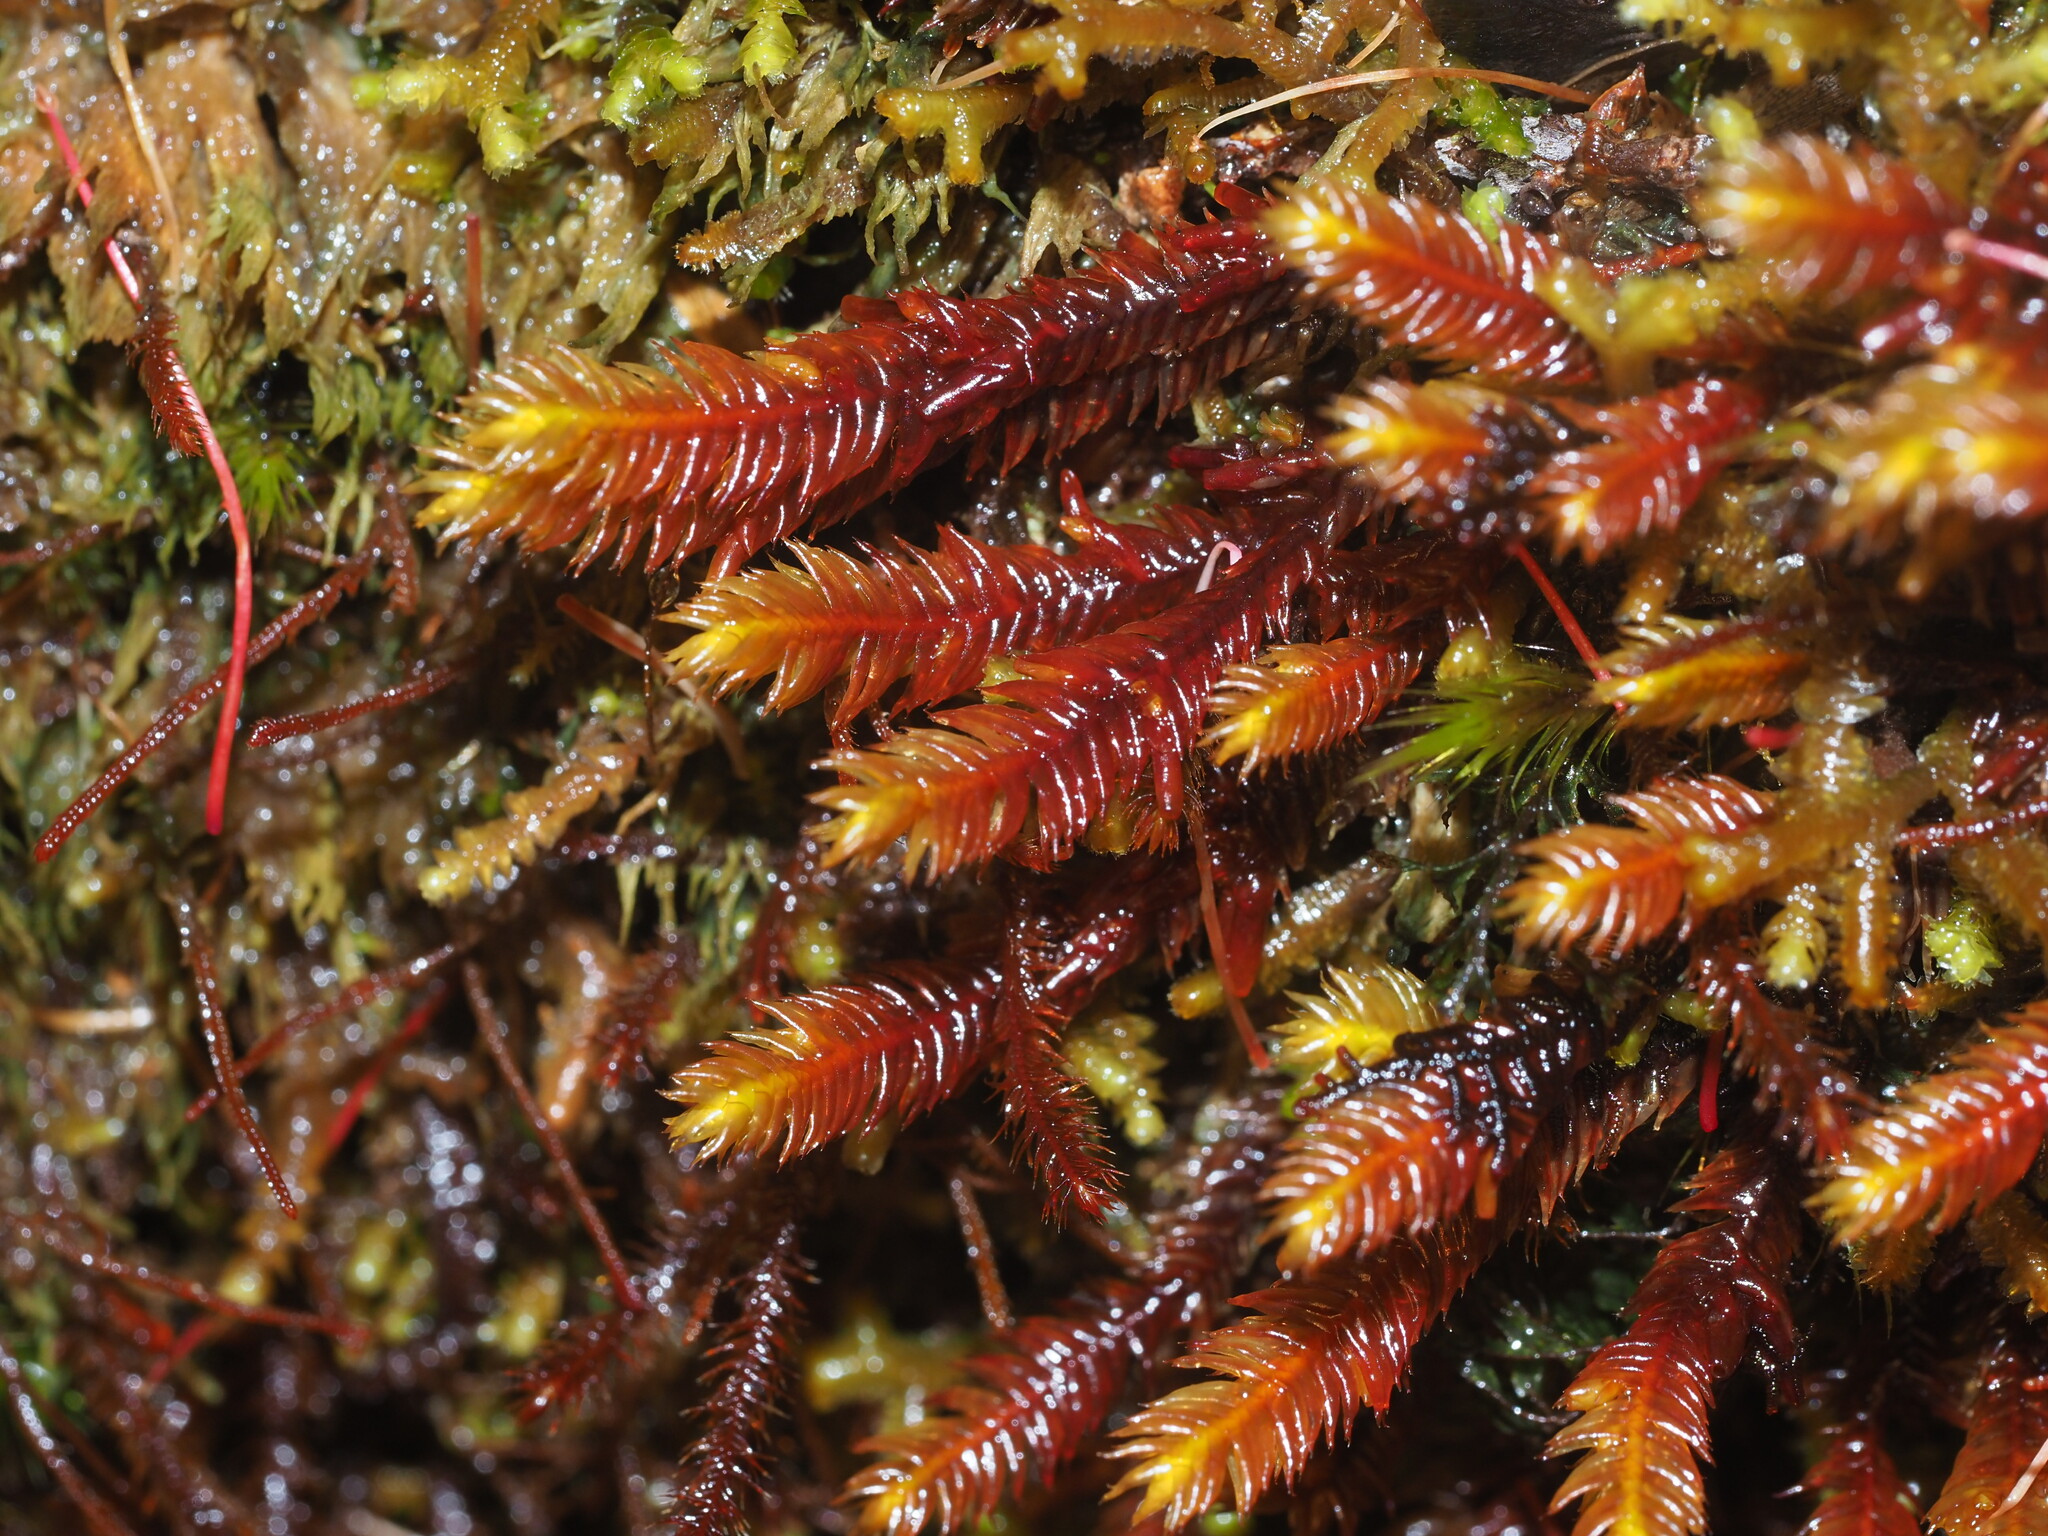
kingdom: Plantae
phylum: Marchantiophyta
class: Jungermanniopsida
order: Pleuroziales
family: Pleuroziaceae
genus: Pleurozia
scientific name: Pleurozia subinflata
